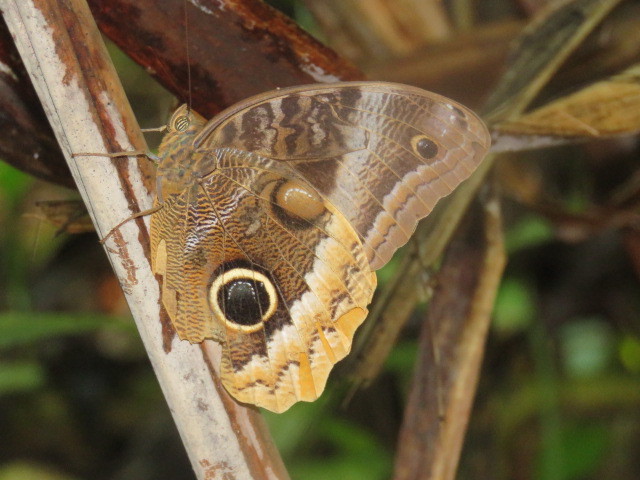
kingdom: Animalia
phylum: Arthropoda
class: Insecta
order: Lepidoptera
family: Nymphalidae
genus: Caligo
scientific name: Caligo uranus
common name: Gold-edged owl-butterfly
